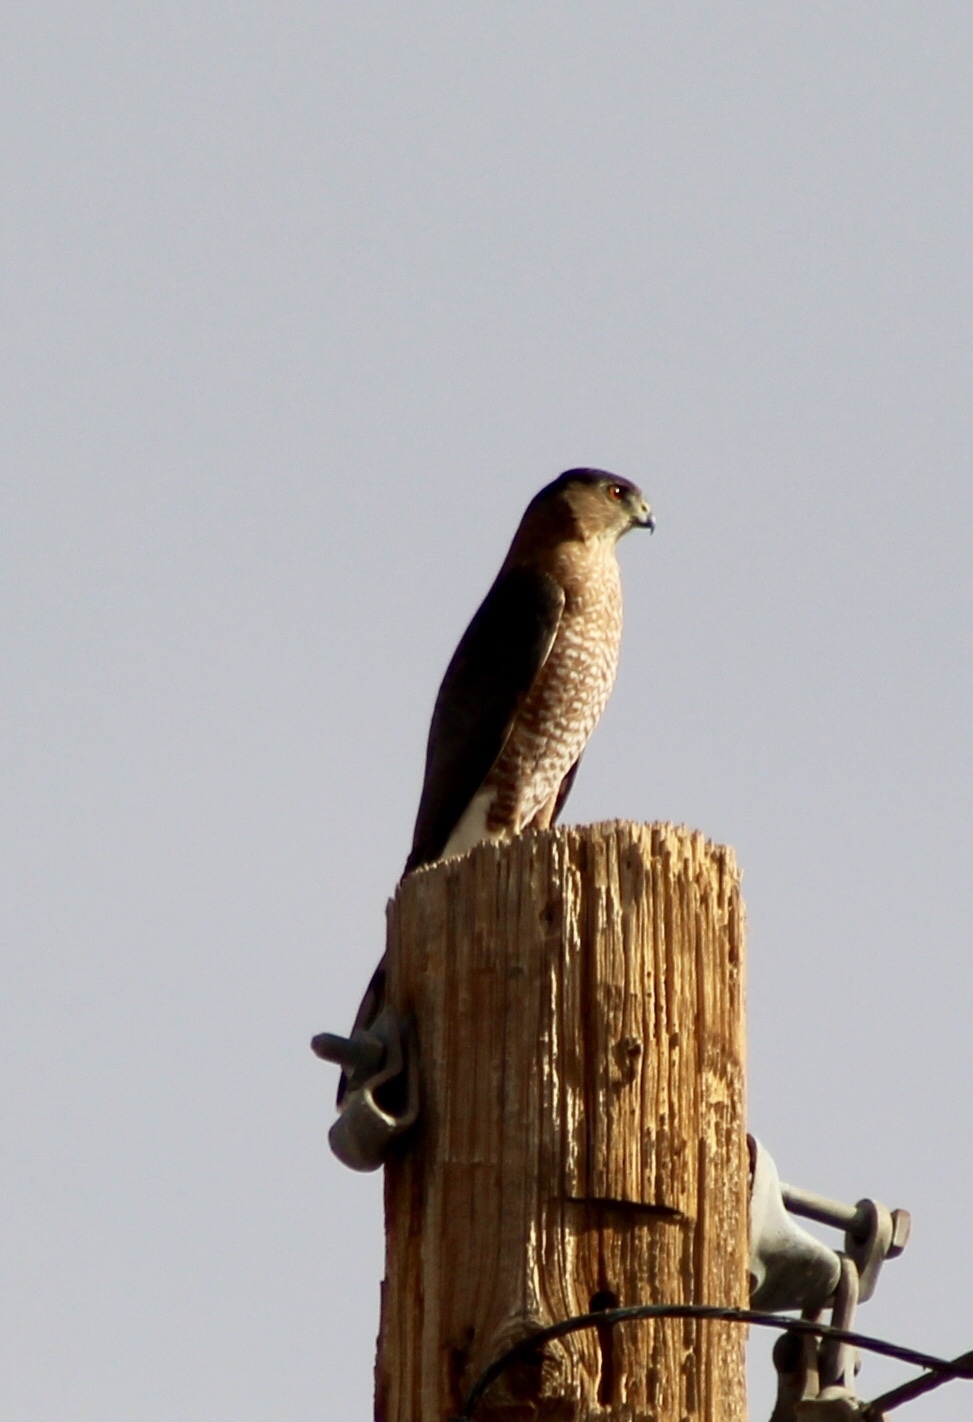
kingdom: Animalia
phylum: Chordata
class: Aves
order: Accipitriformes
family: Accipitridae
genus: Accipiter
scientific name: Accipiter cooperii
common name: Cooper's hawk
